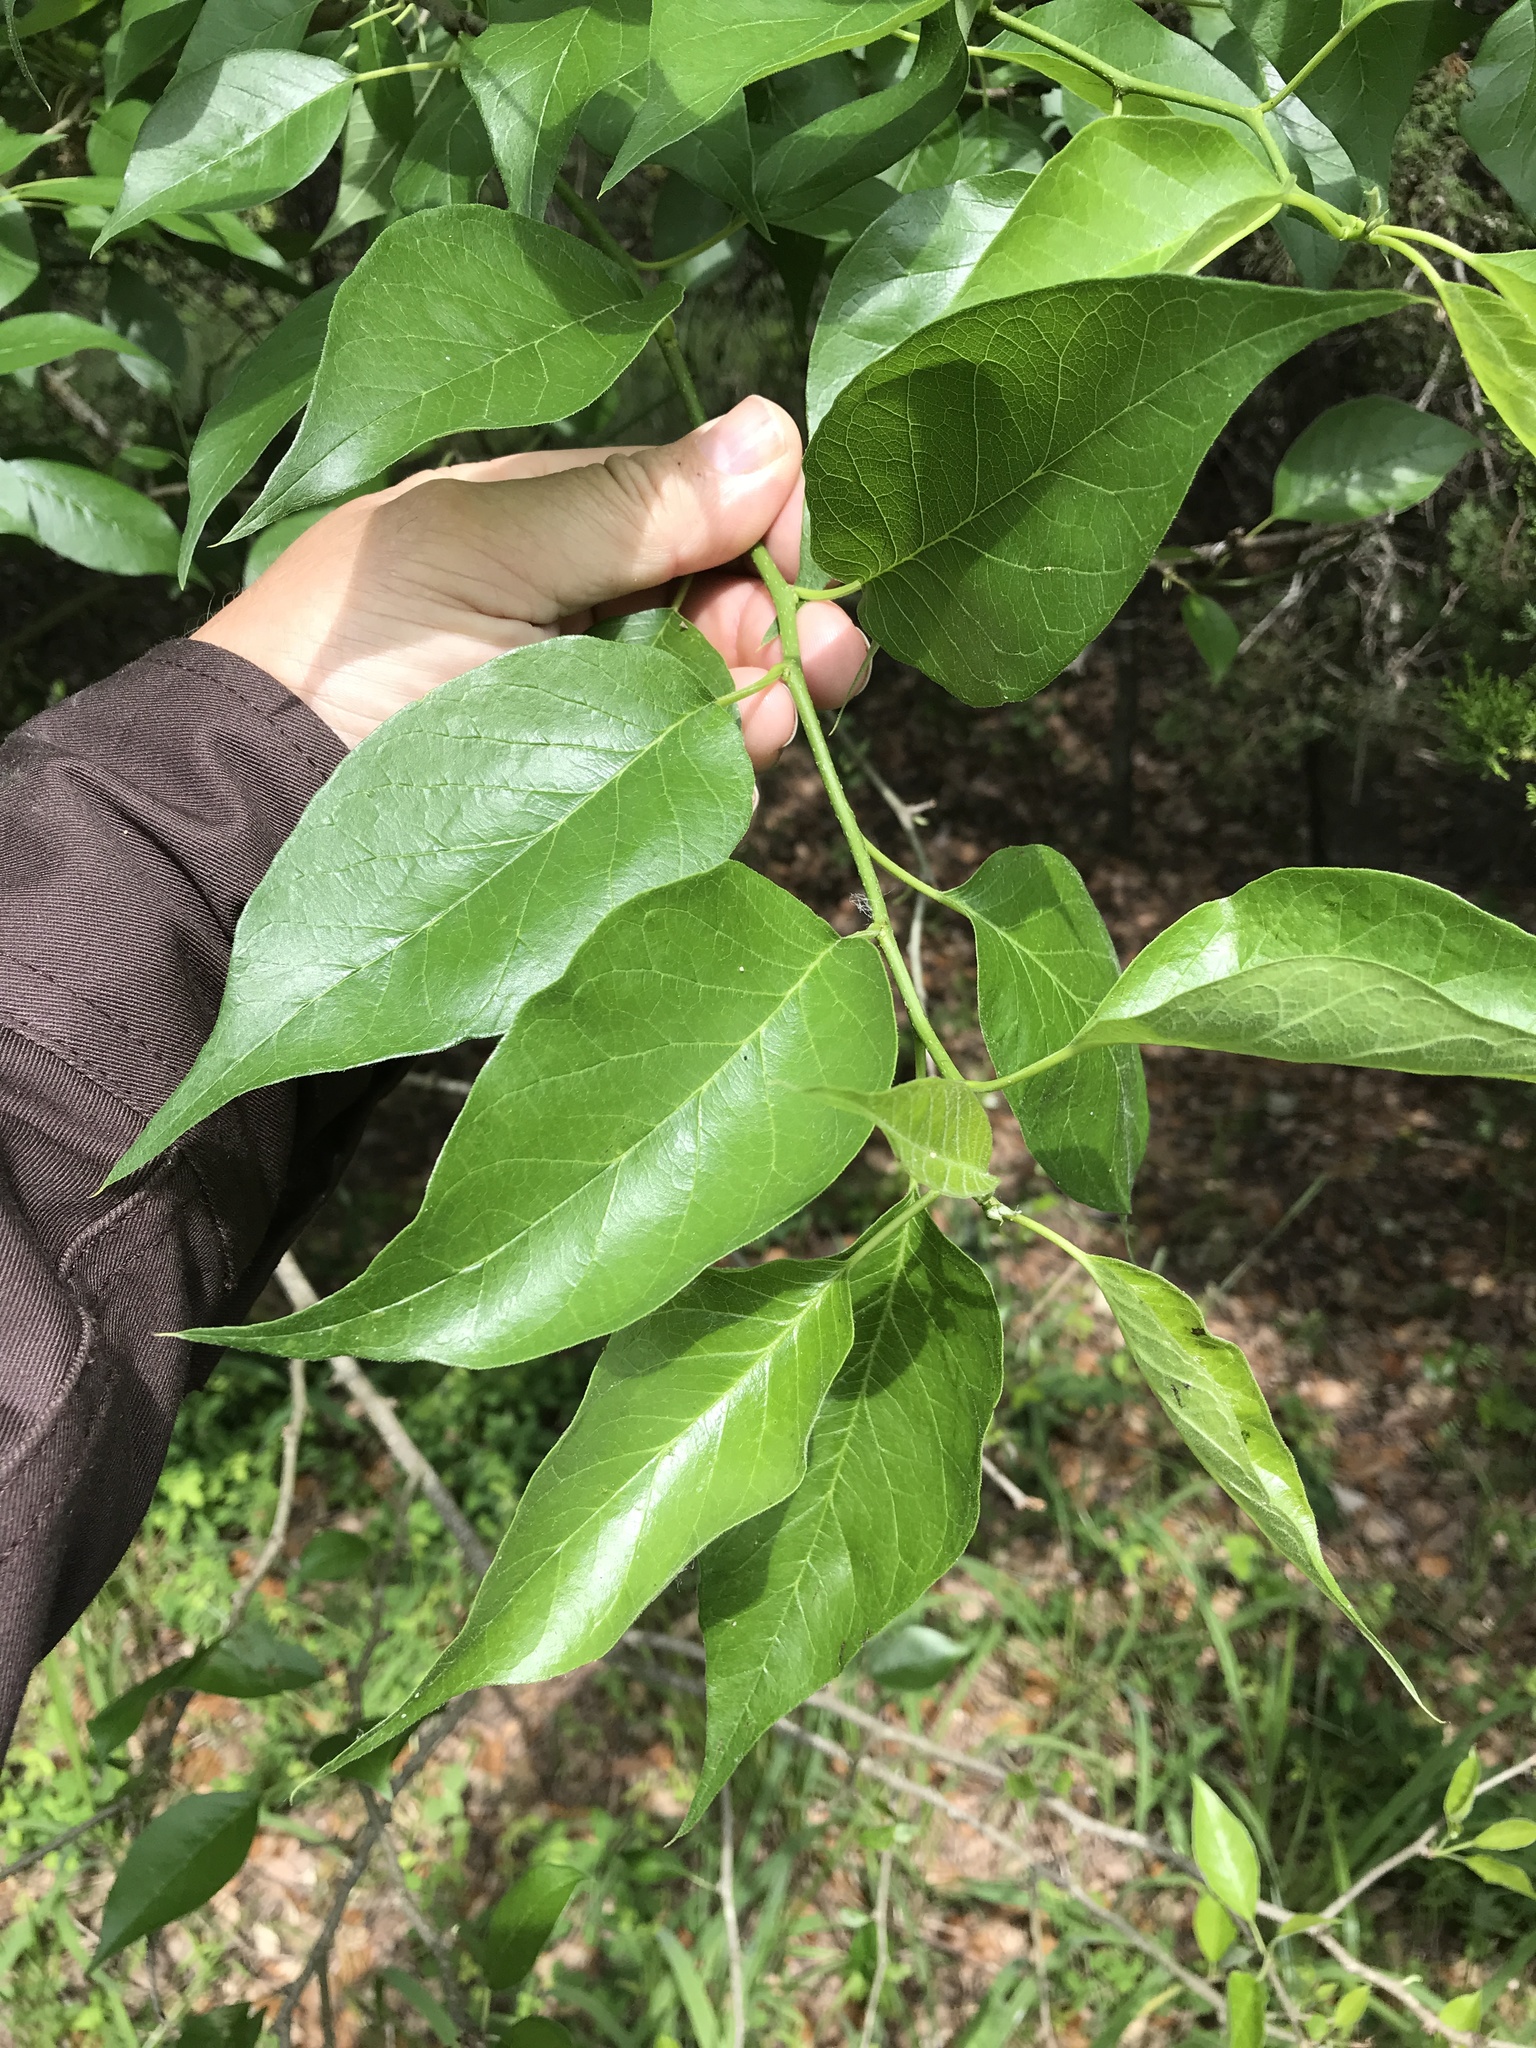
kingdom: Plantae
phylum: Tracheophyta
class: Magnoliopsida
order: Rosales
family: Moraceae
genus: Maclura
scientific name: Maclura pomifera
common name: Osage-orange
